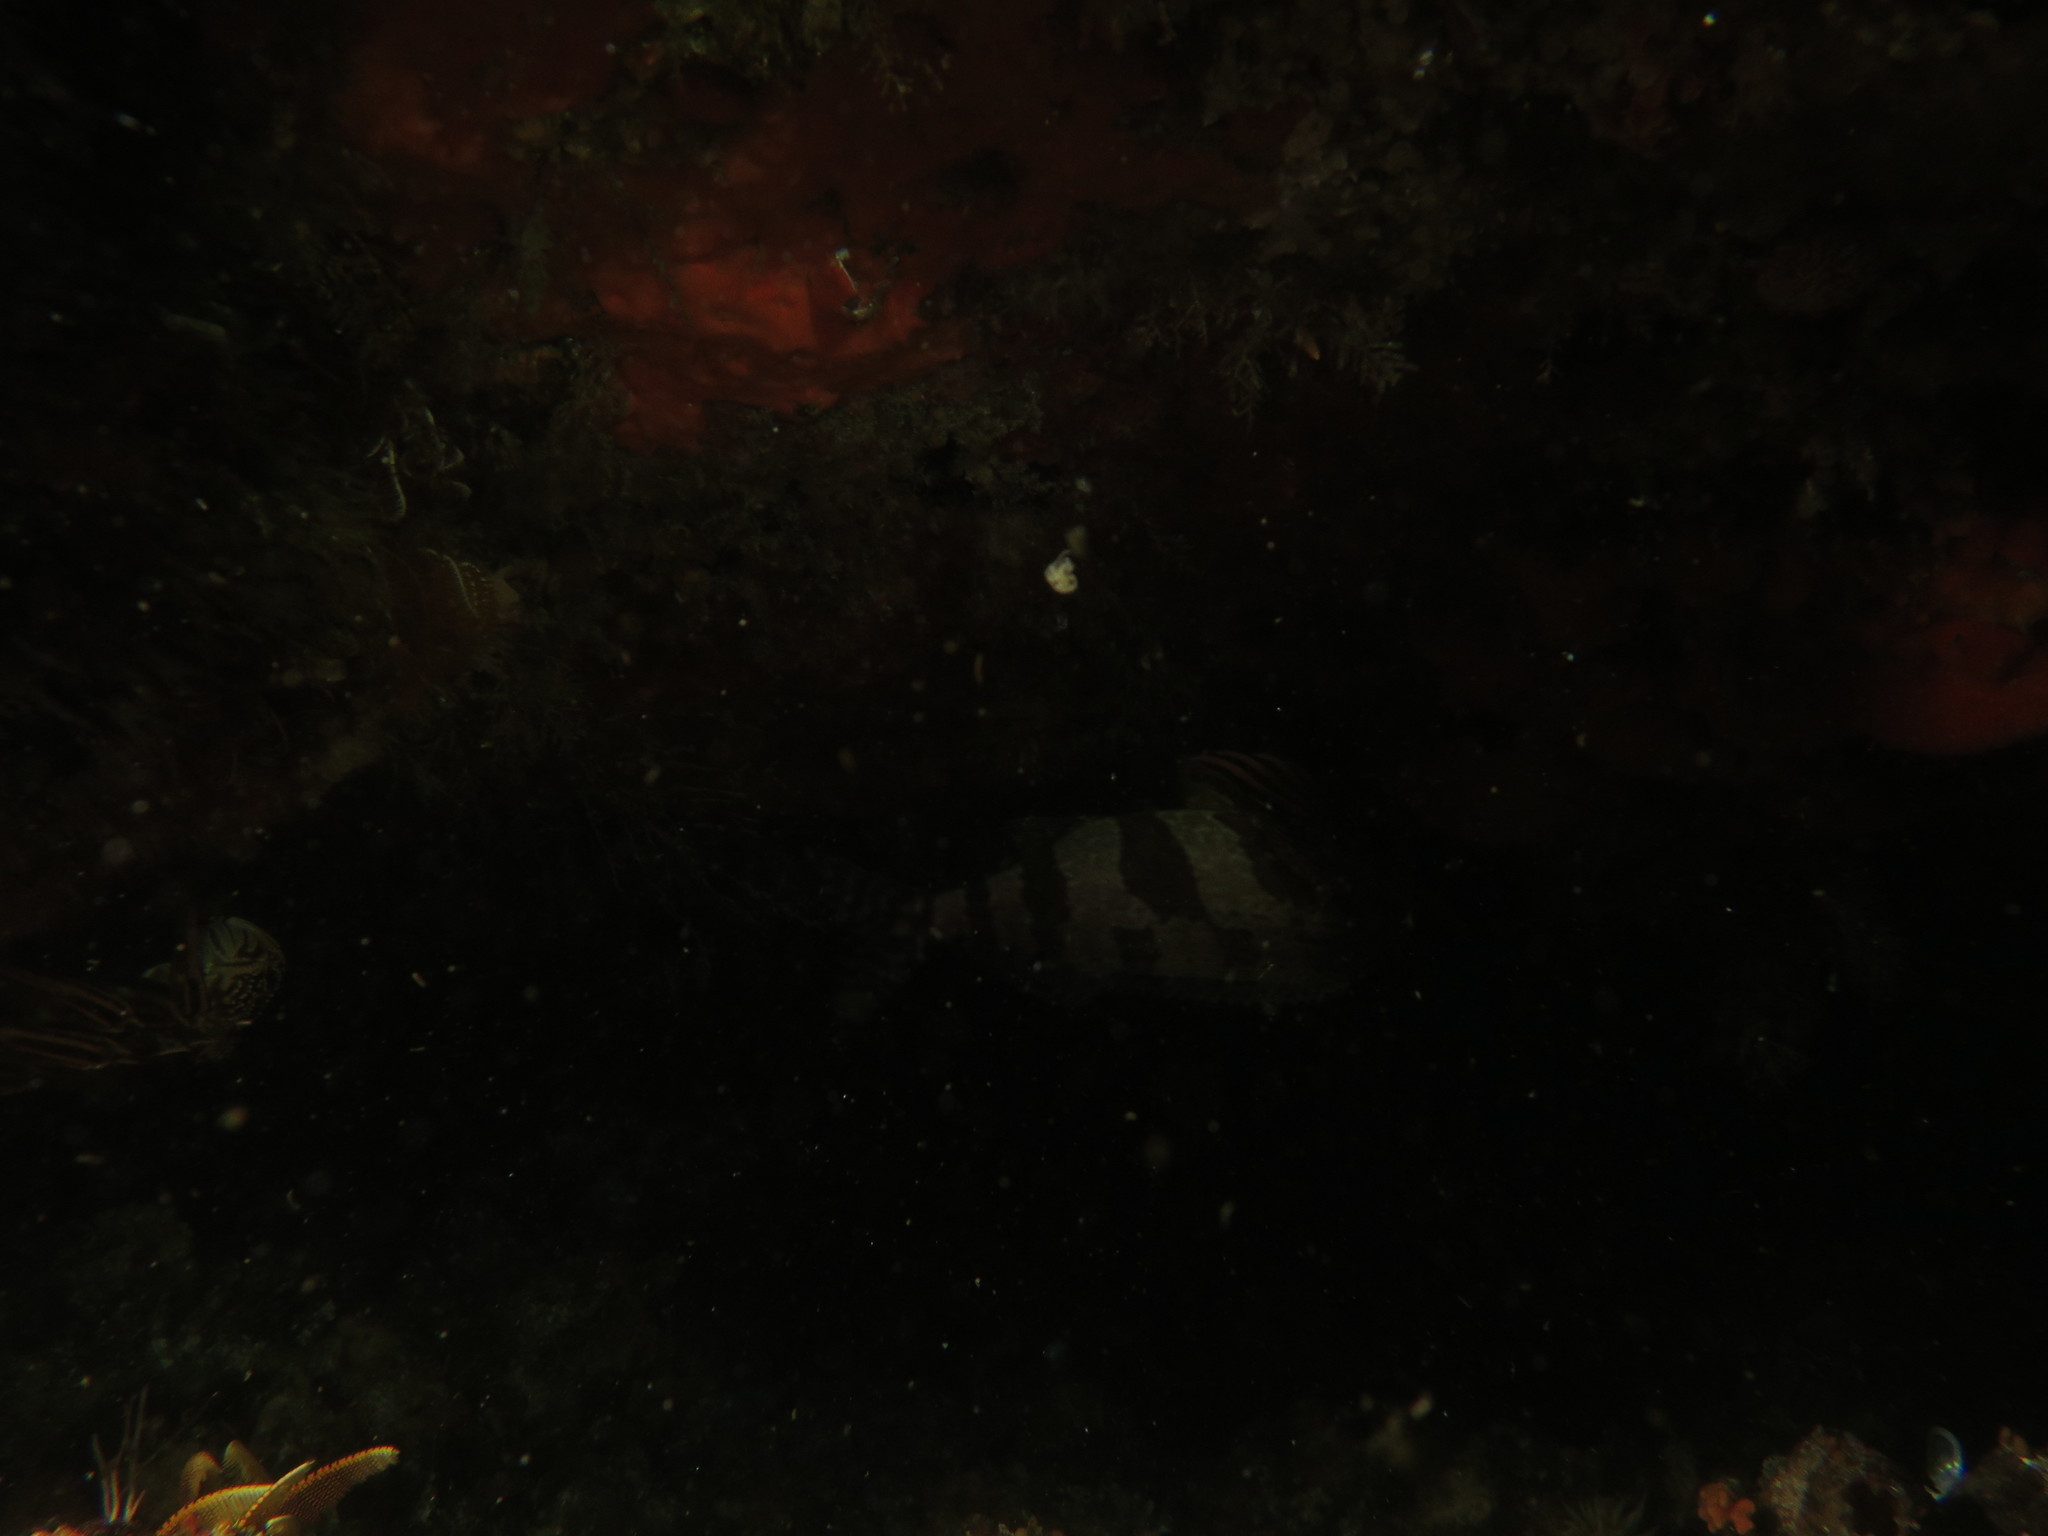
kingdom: Animalia
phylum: Chordata
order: Perciformes
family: Cheilodactylidae
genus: Cheilodactylus
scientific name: Cheilodactylus fasciatus
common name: Redfingers
